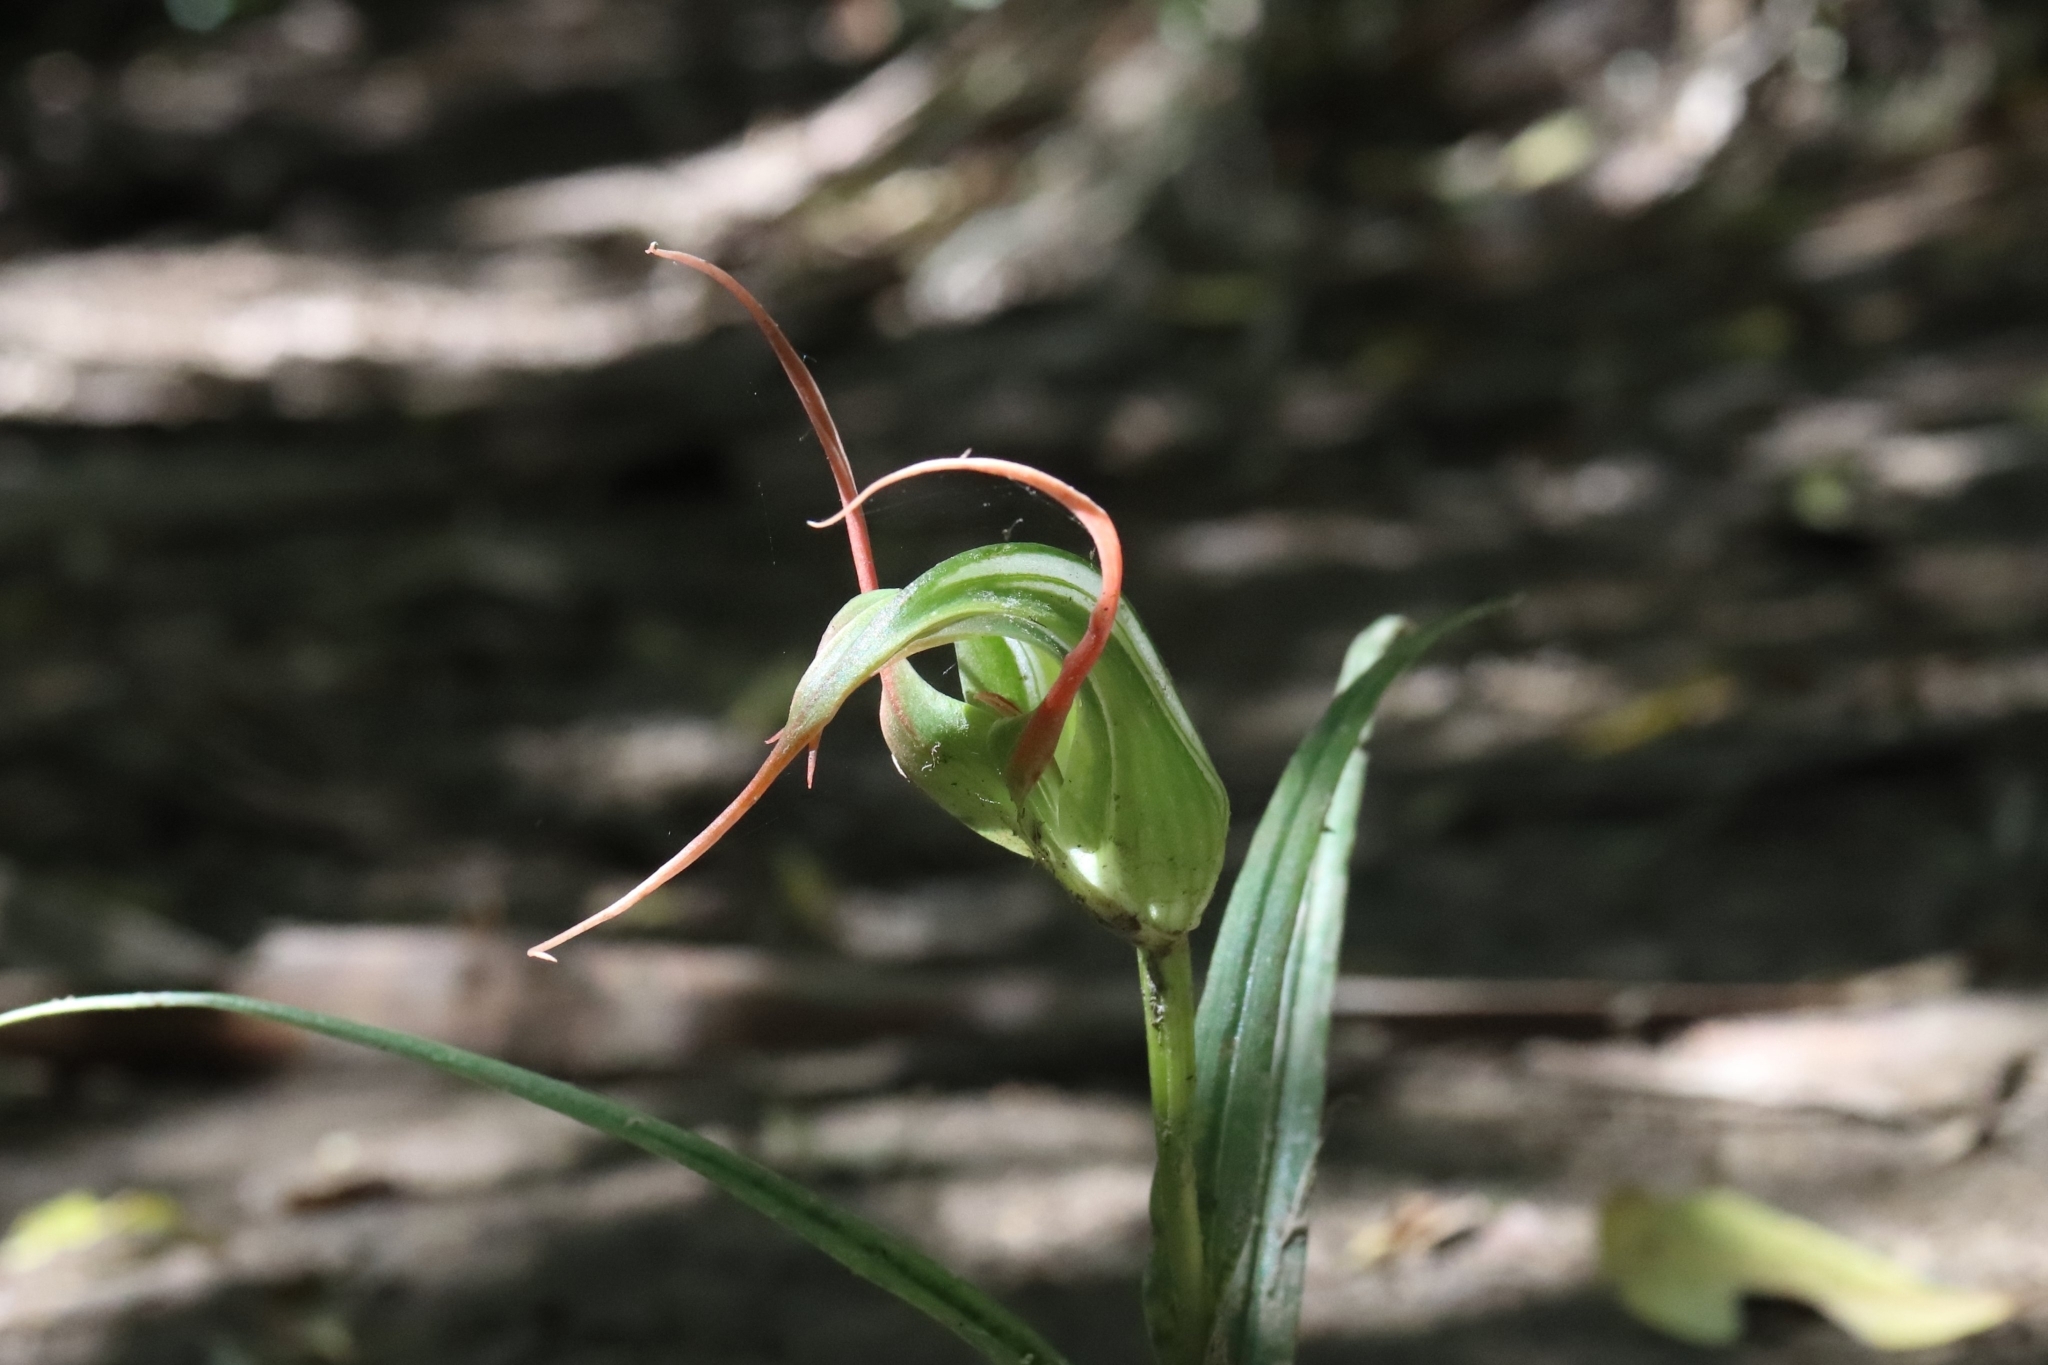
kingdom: Plantae
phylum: Tracheophyta
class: Liliopsida
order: Asparagales
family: Orchidaceae
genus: Pterostylis
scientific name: Pterostylis banksii
